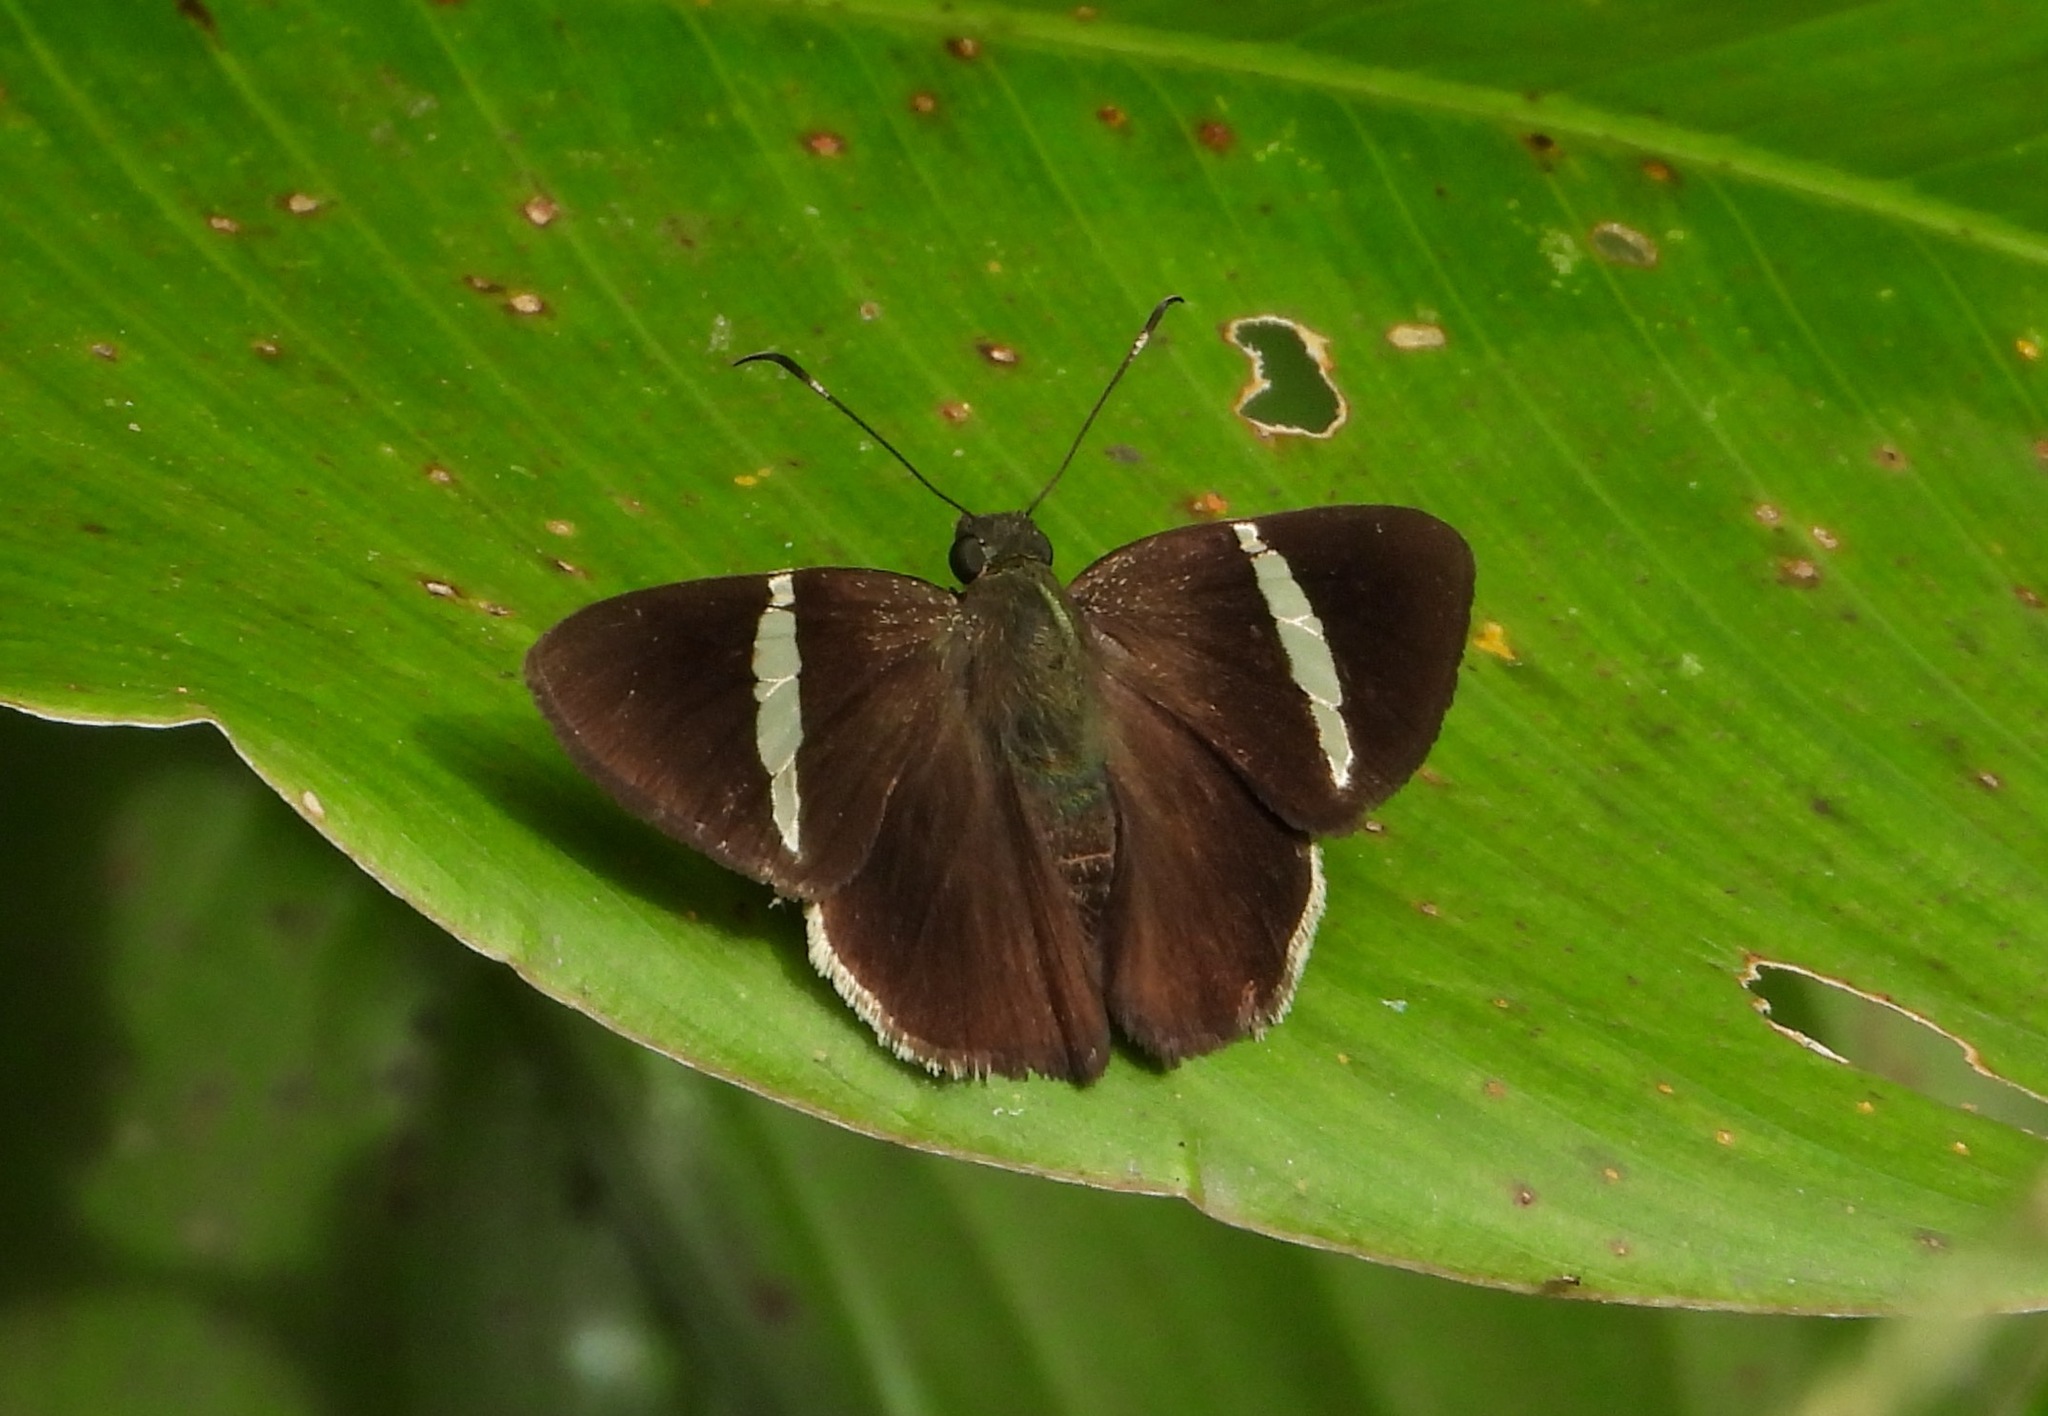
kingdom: Animalia
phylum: Arthropoda
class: Insecta
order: Lepidoptera
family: Hesperiidae
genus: Autochton
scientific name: Autochton zarex
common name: Sharp banded-skipper
